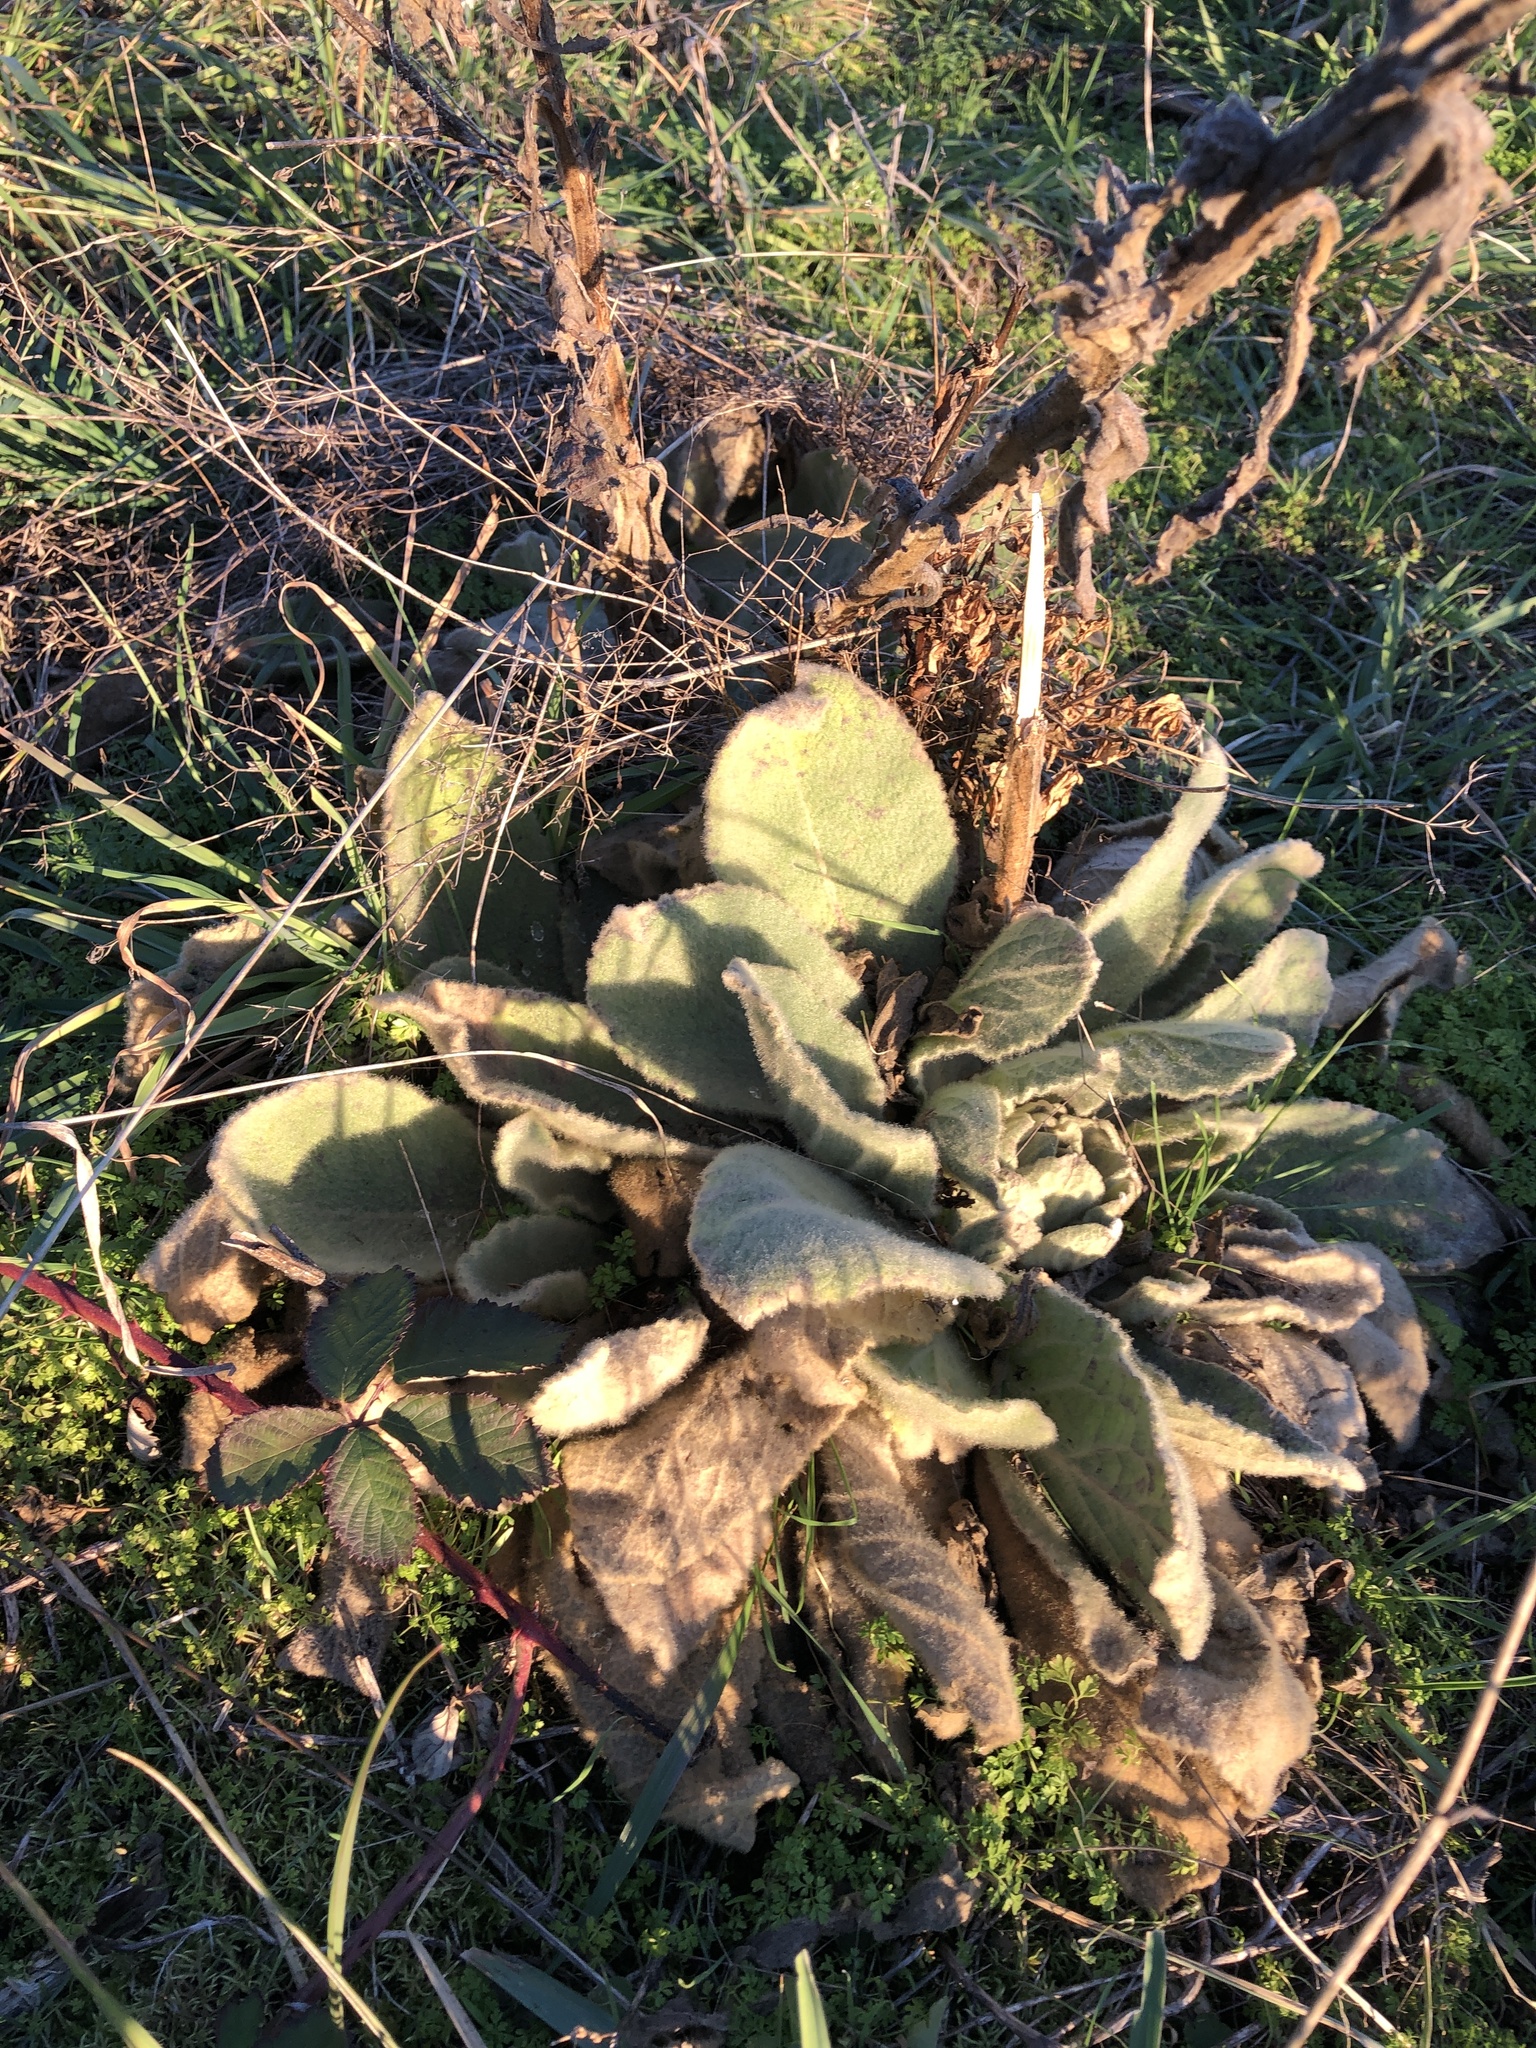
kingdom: Plantae
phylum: Tracheophyta
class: Magnoliopsida
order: Lamiales
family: Scrophulariaceae
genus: Verbascum
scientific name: Verbascum thapsus
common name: Common mullein
